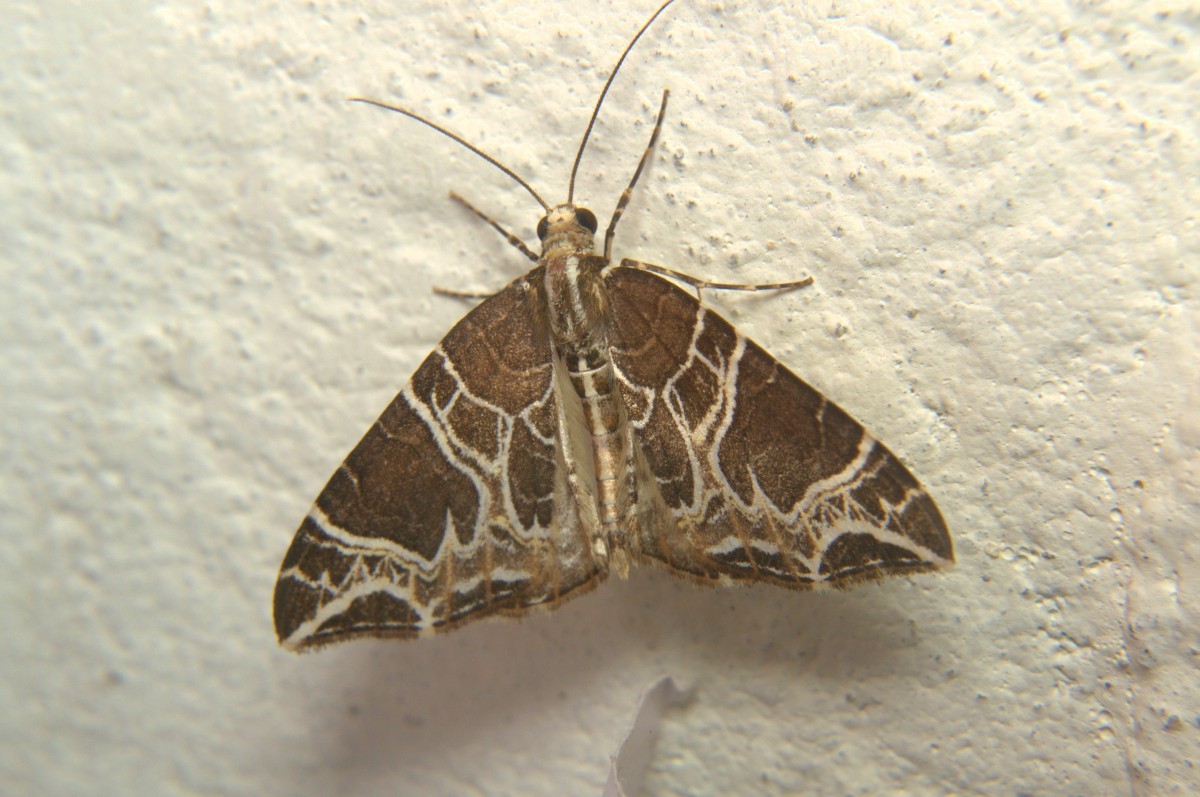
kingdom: Animalia
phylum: Arthropoda
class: Insecta
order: Lepidoptera
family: Geometridae
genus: Ecliptopera
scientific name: Ecliptopera delecta
